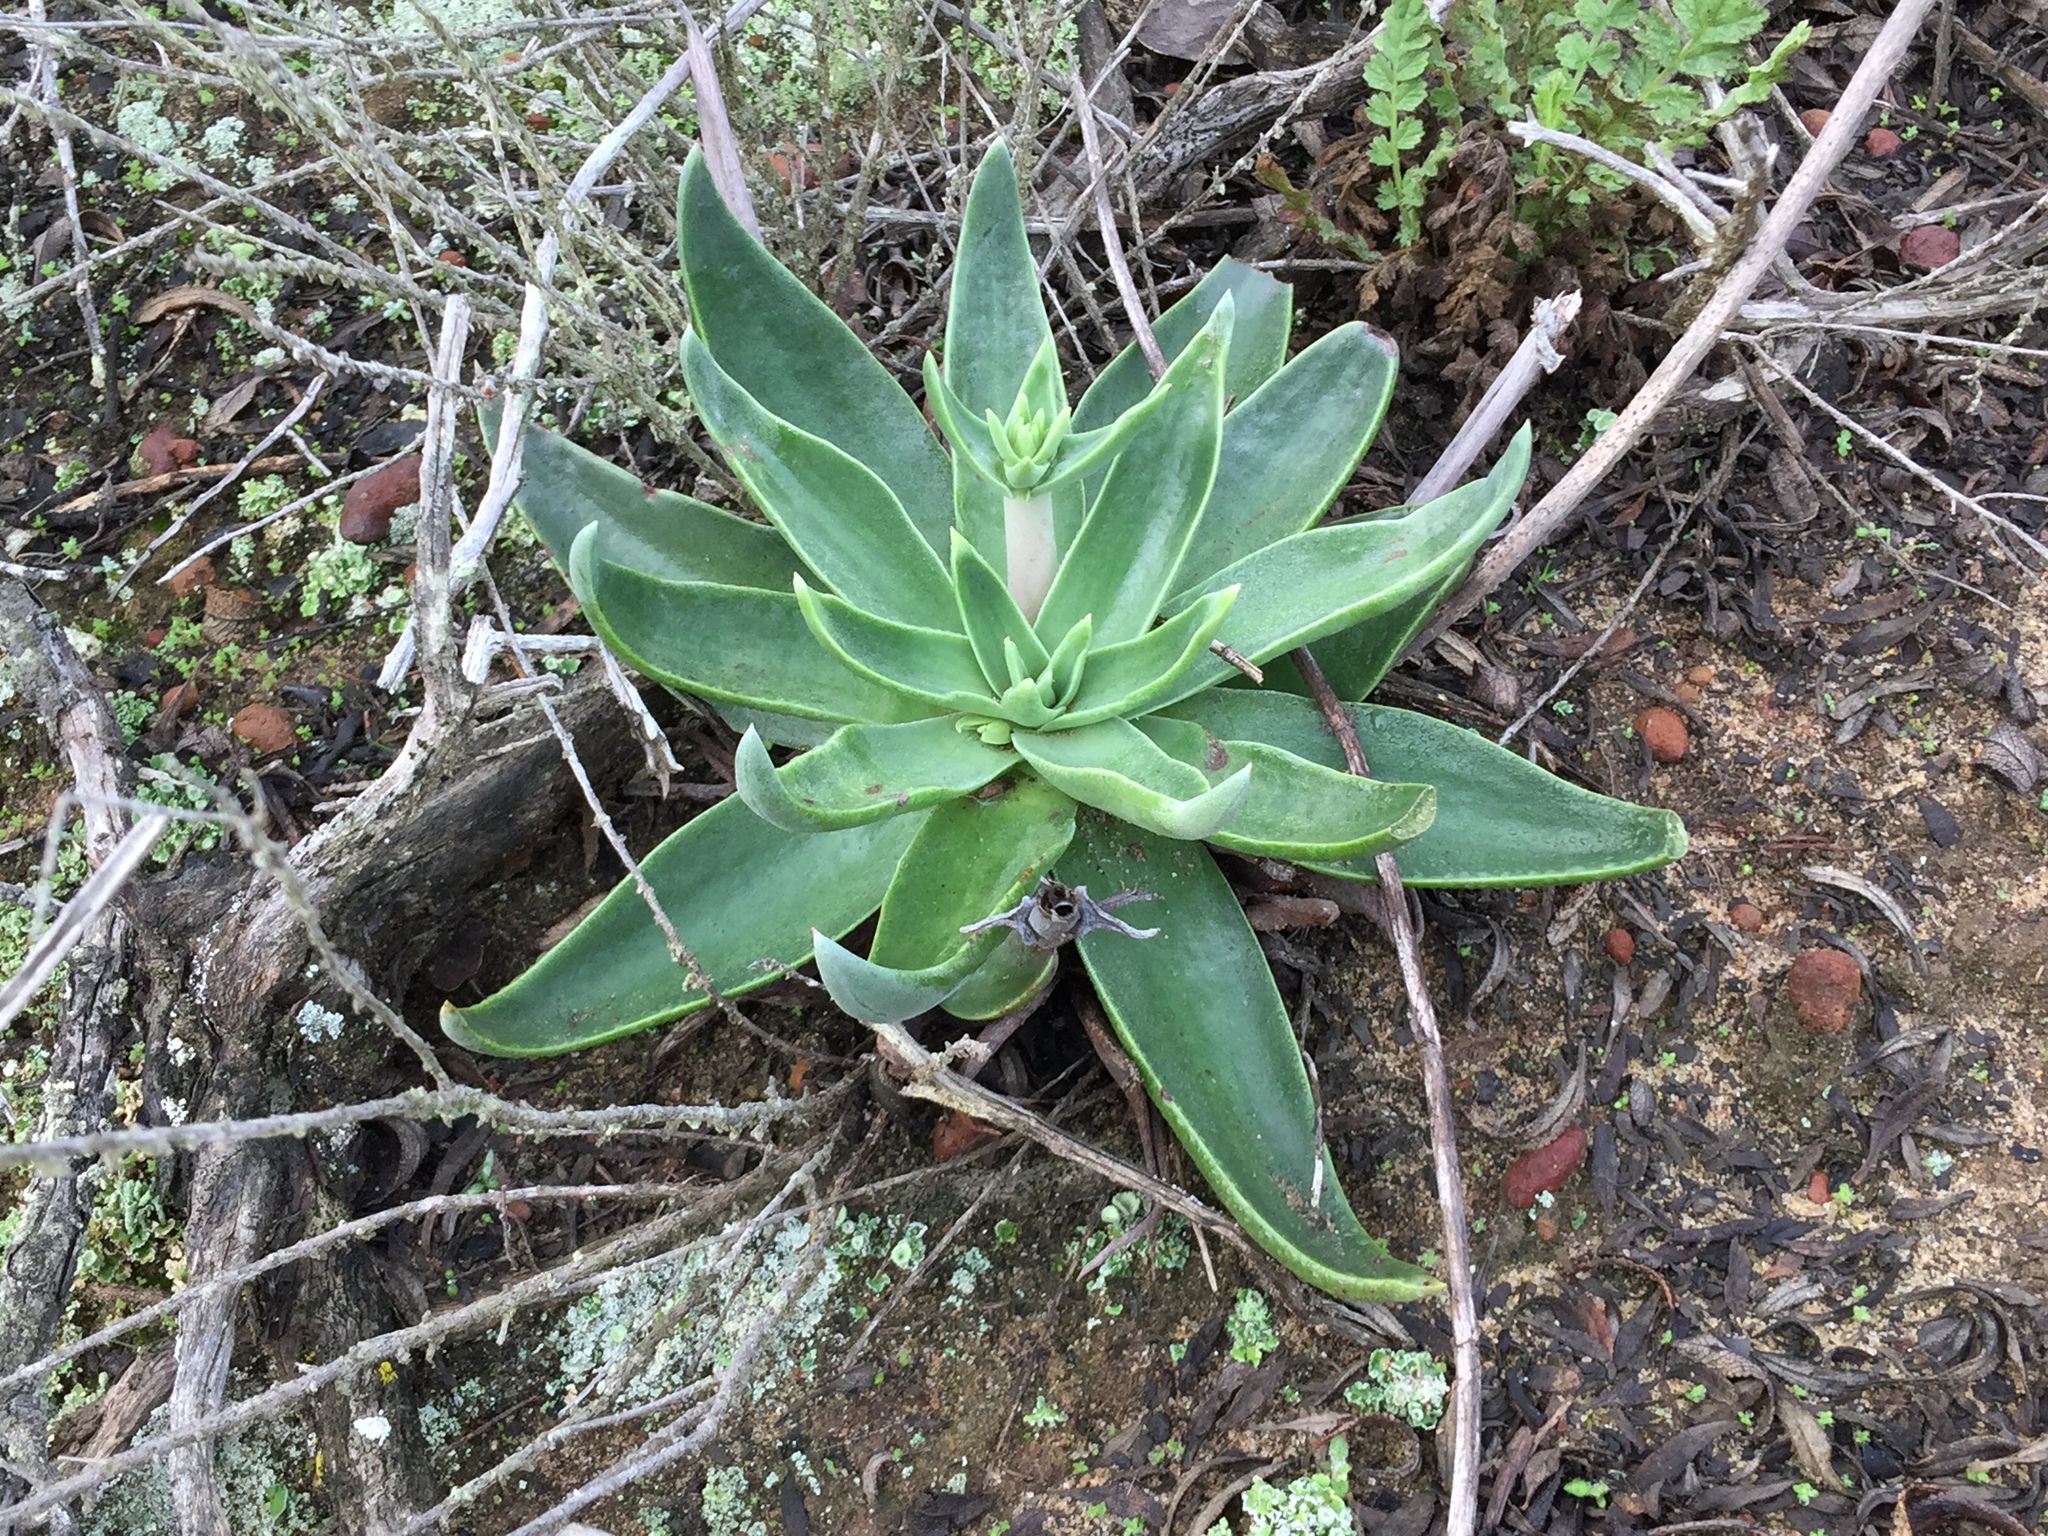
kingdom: Plantae
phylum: Tracheophyta
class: Magnoliopsida
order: Saxifragales
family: Crassulaceae
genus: Dudleya
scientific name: Dudleya lanceolata
